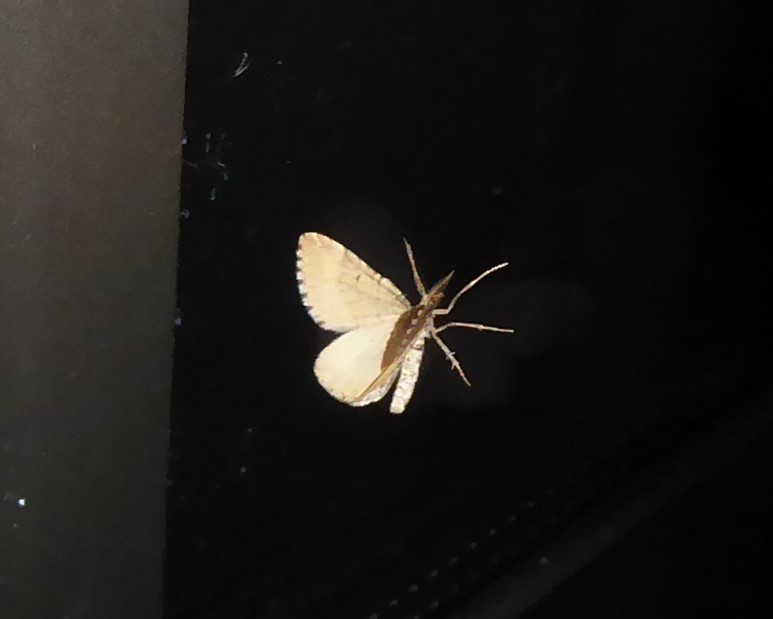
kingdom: Animalia
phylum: Arthropoda
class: Insecta
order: Lepidoptera
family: Geometridae
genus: Asaphodes
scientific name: Asaphodes aegrota
